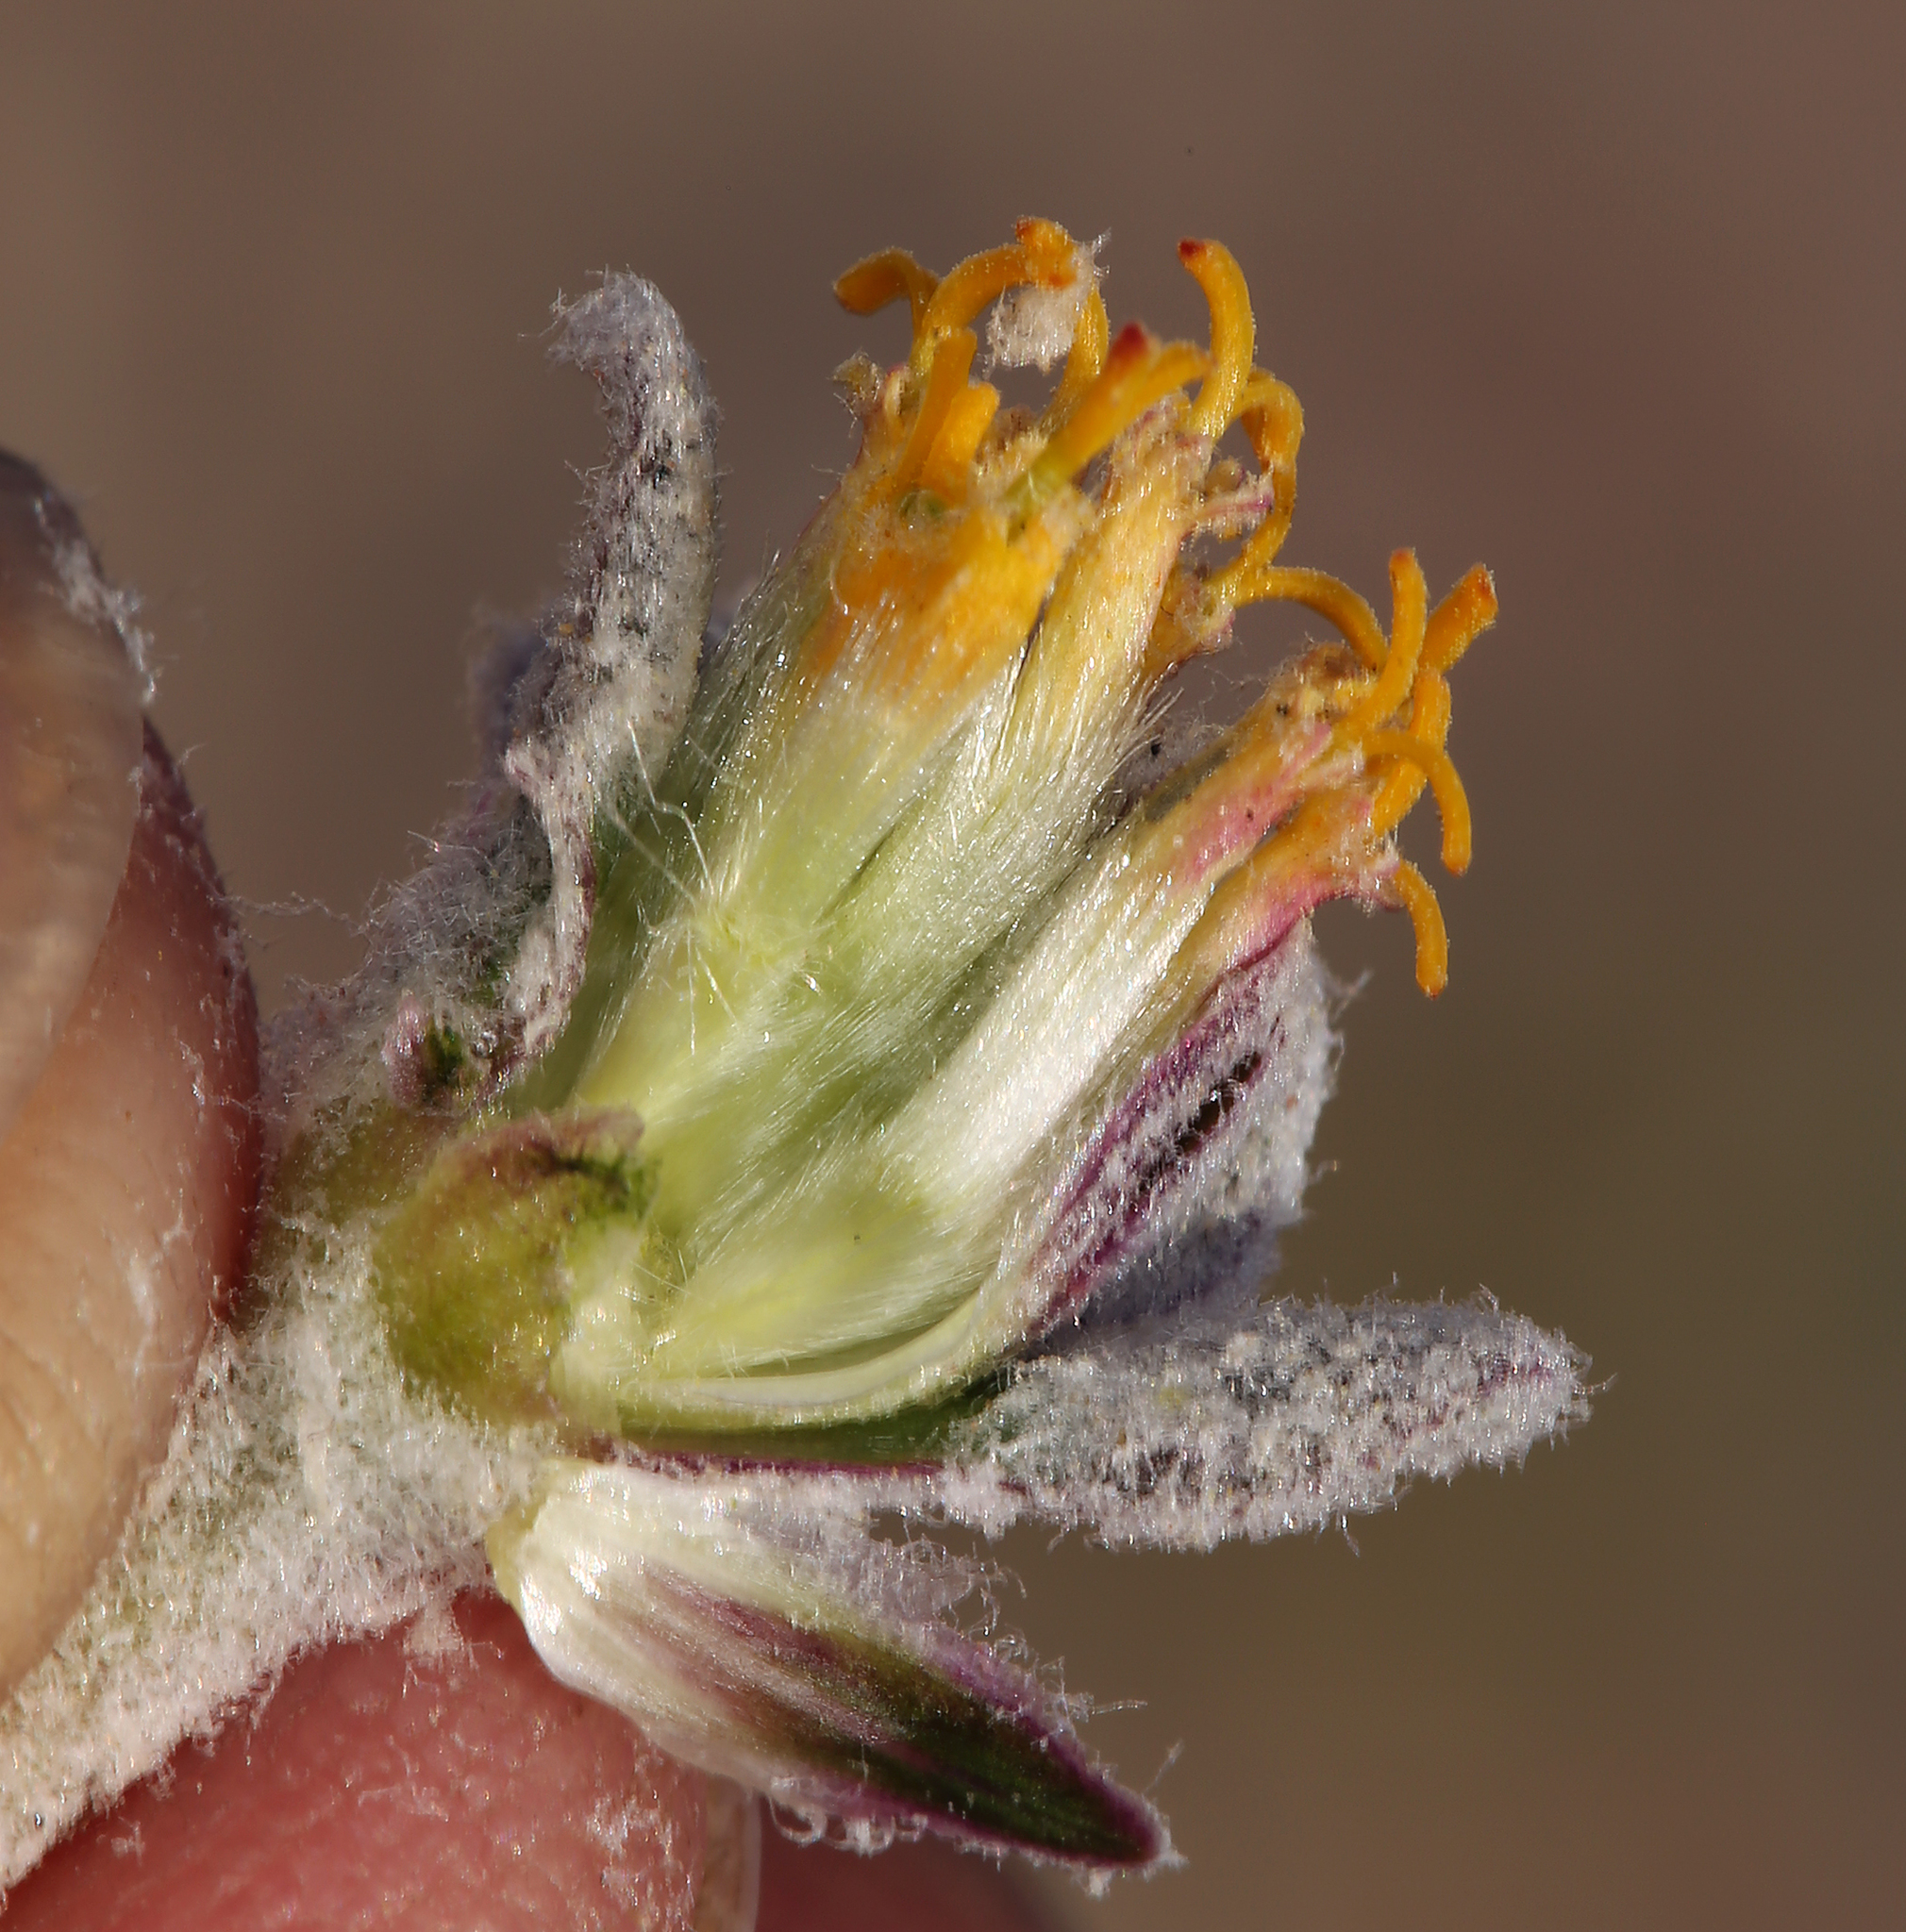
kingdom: Plantae
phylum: Tracheophyta
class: Magnoliopsida
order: Asterales
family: Asteraceae
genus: Psathyrotes
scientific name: Psathyrotes ramosissima
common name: Turtleback
